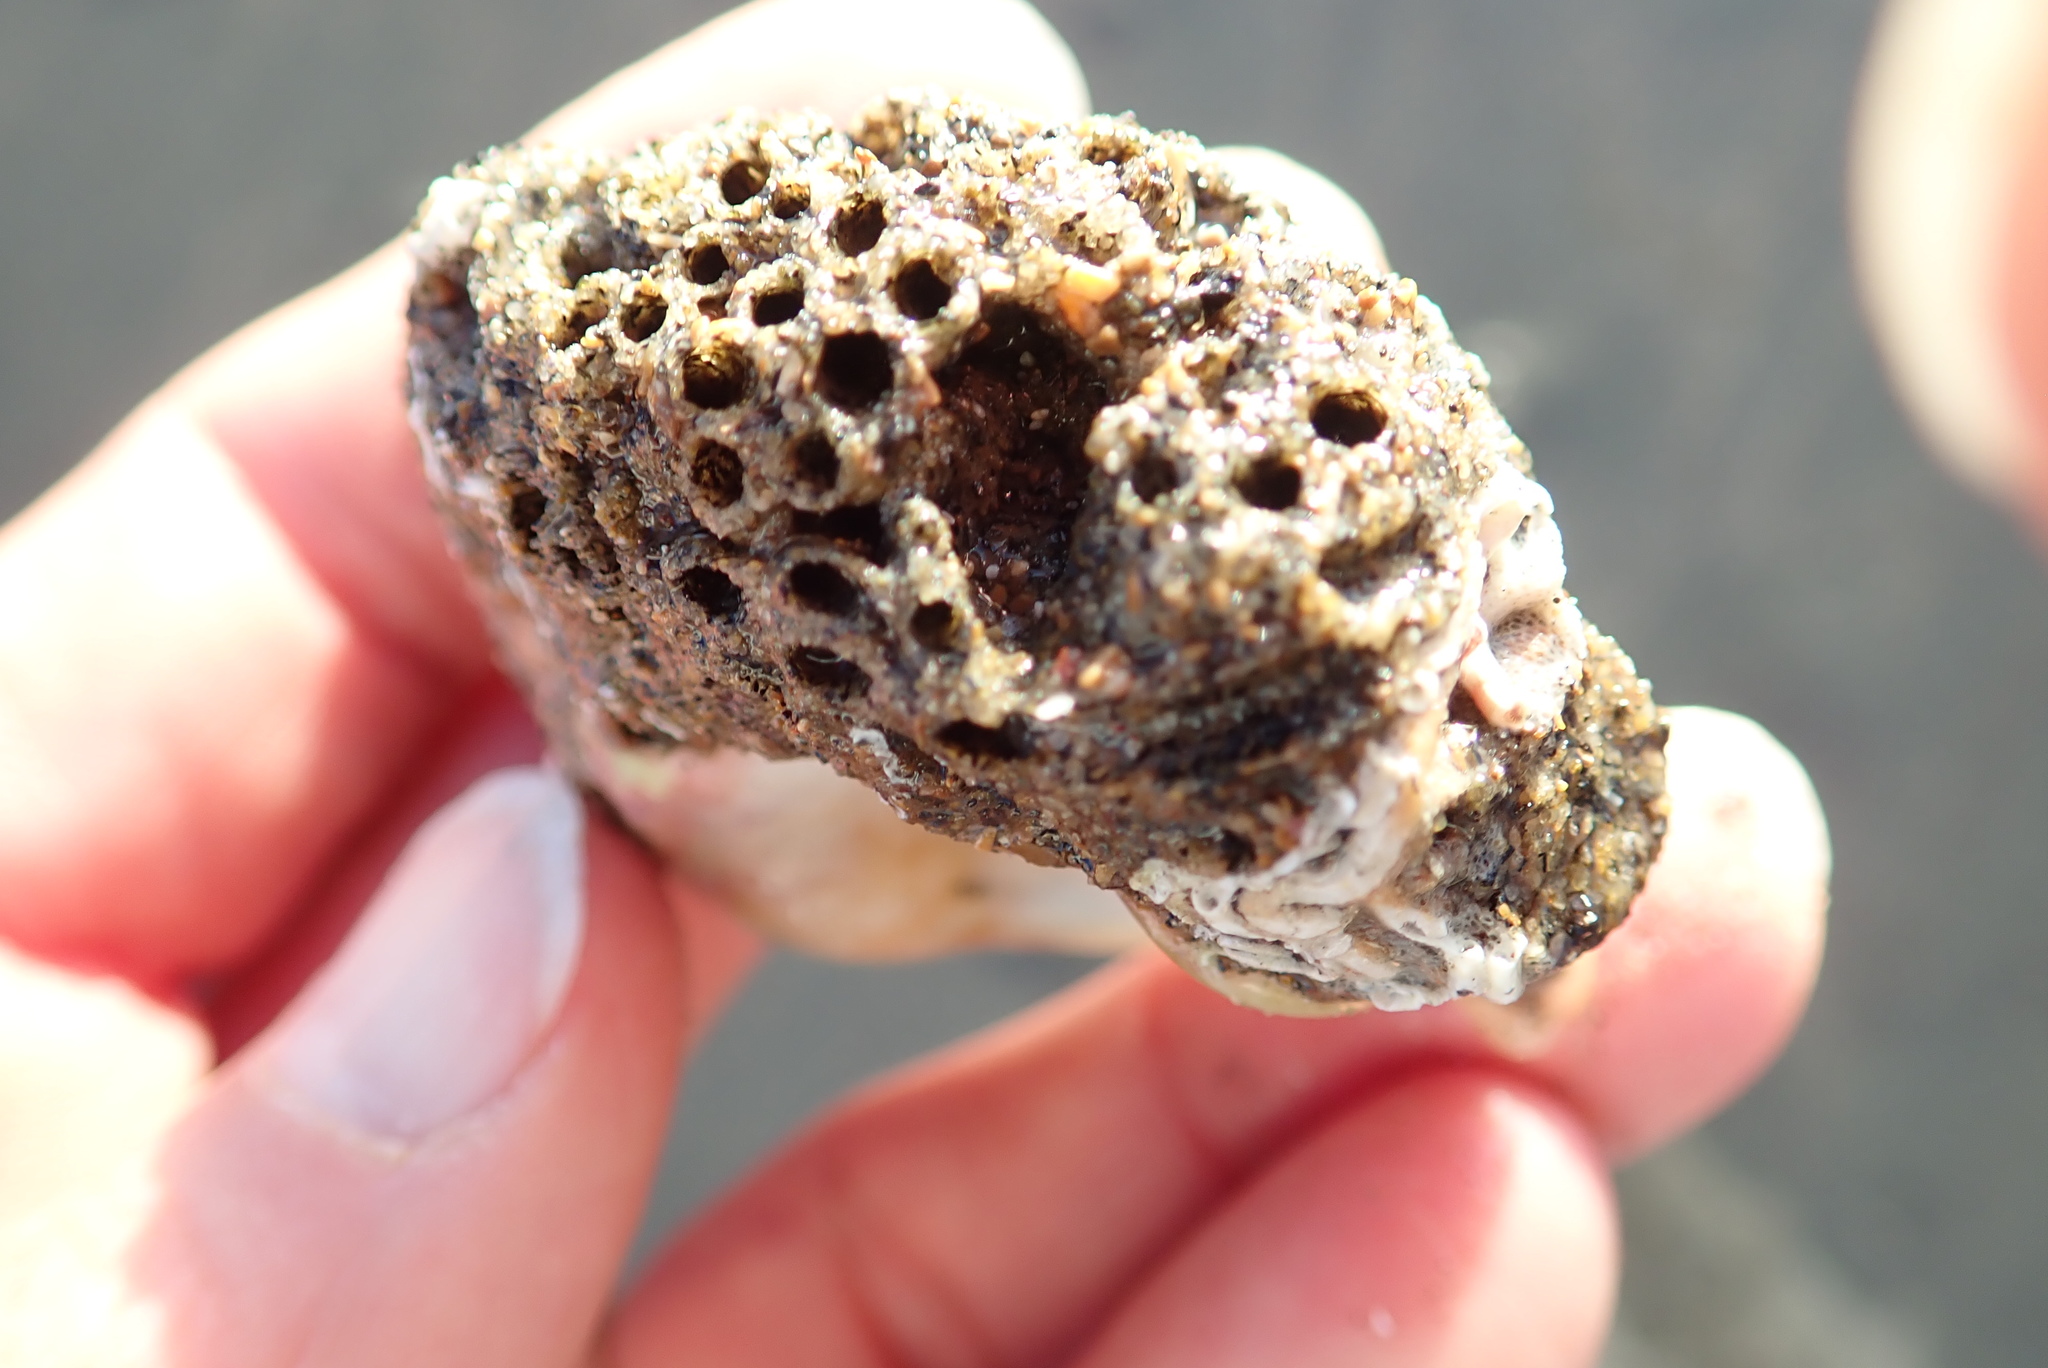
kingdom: Animalia
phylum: Annelida
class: Polychaeta
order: Sabellida
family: Sabellariidae
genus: Neosabellaria
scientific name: Neosabellaria kaiparaensis
